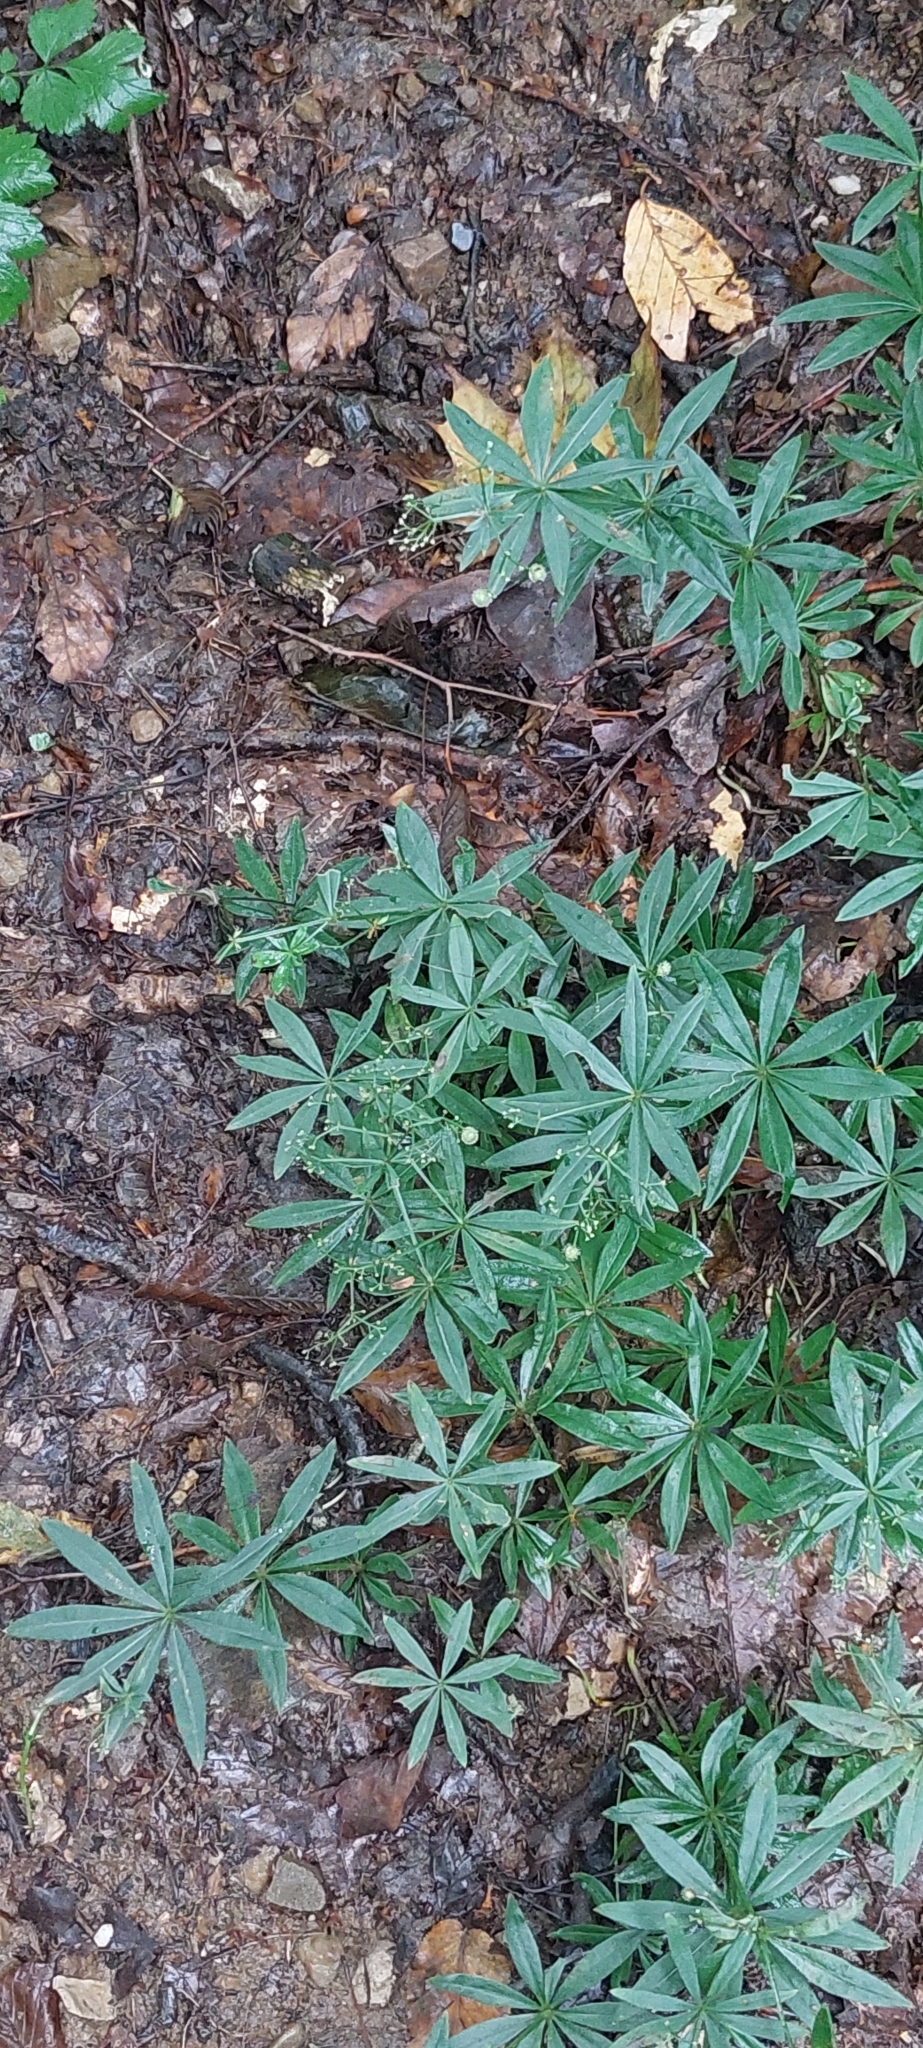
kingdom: Plantae
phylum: Tracheophyta
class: Magnoliopsida
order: Gentianales
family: Rubiaceae
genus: Galium
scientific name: Galium odoratum
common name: Sweet woodruff
